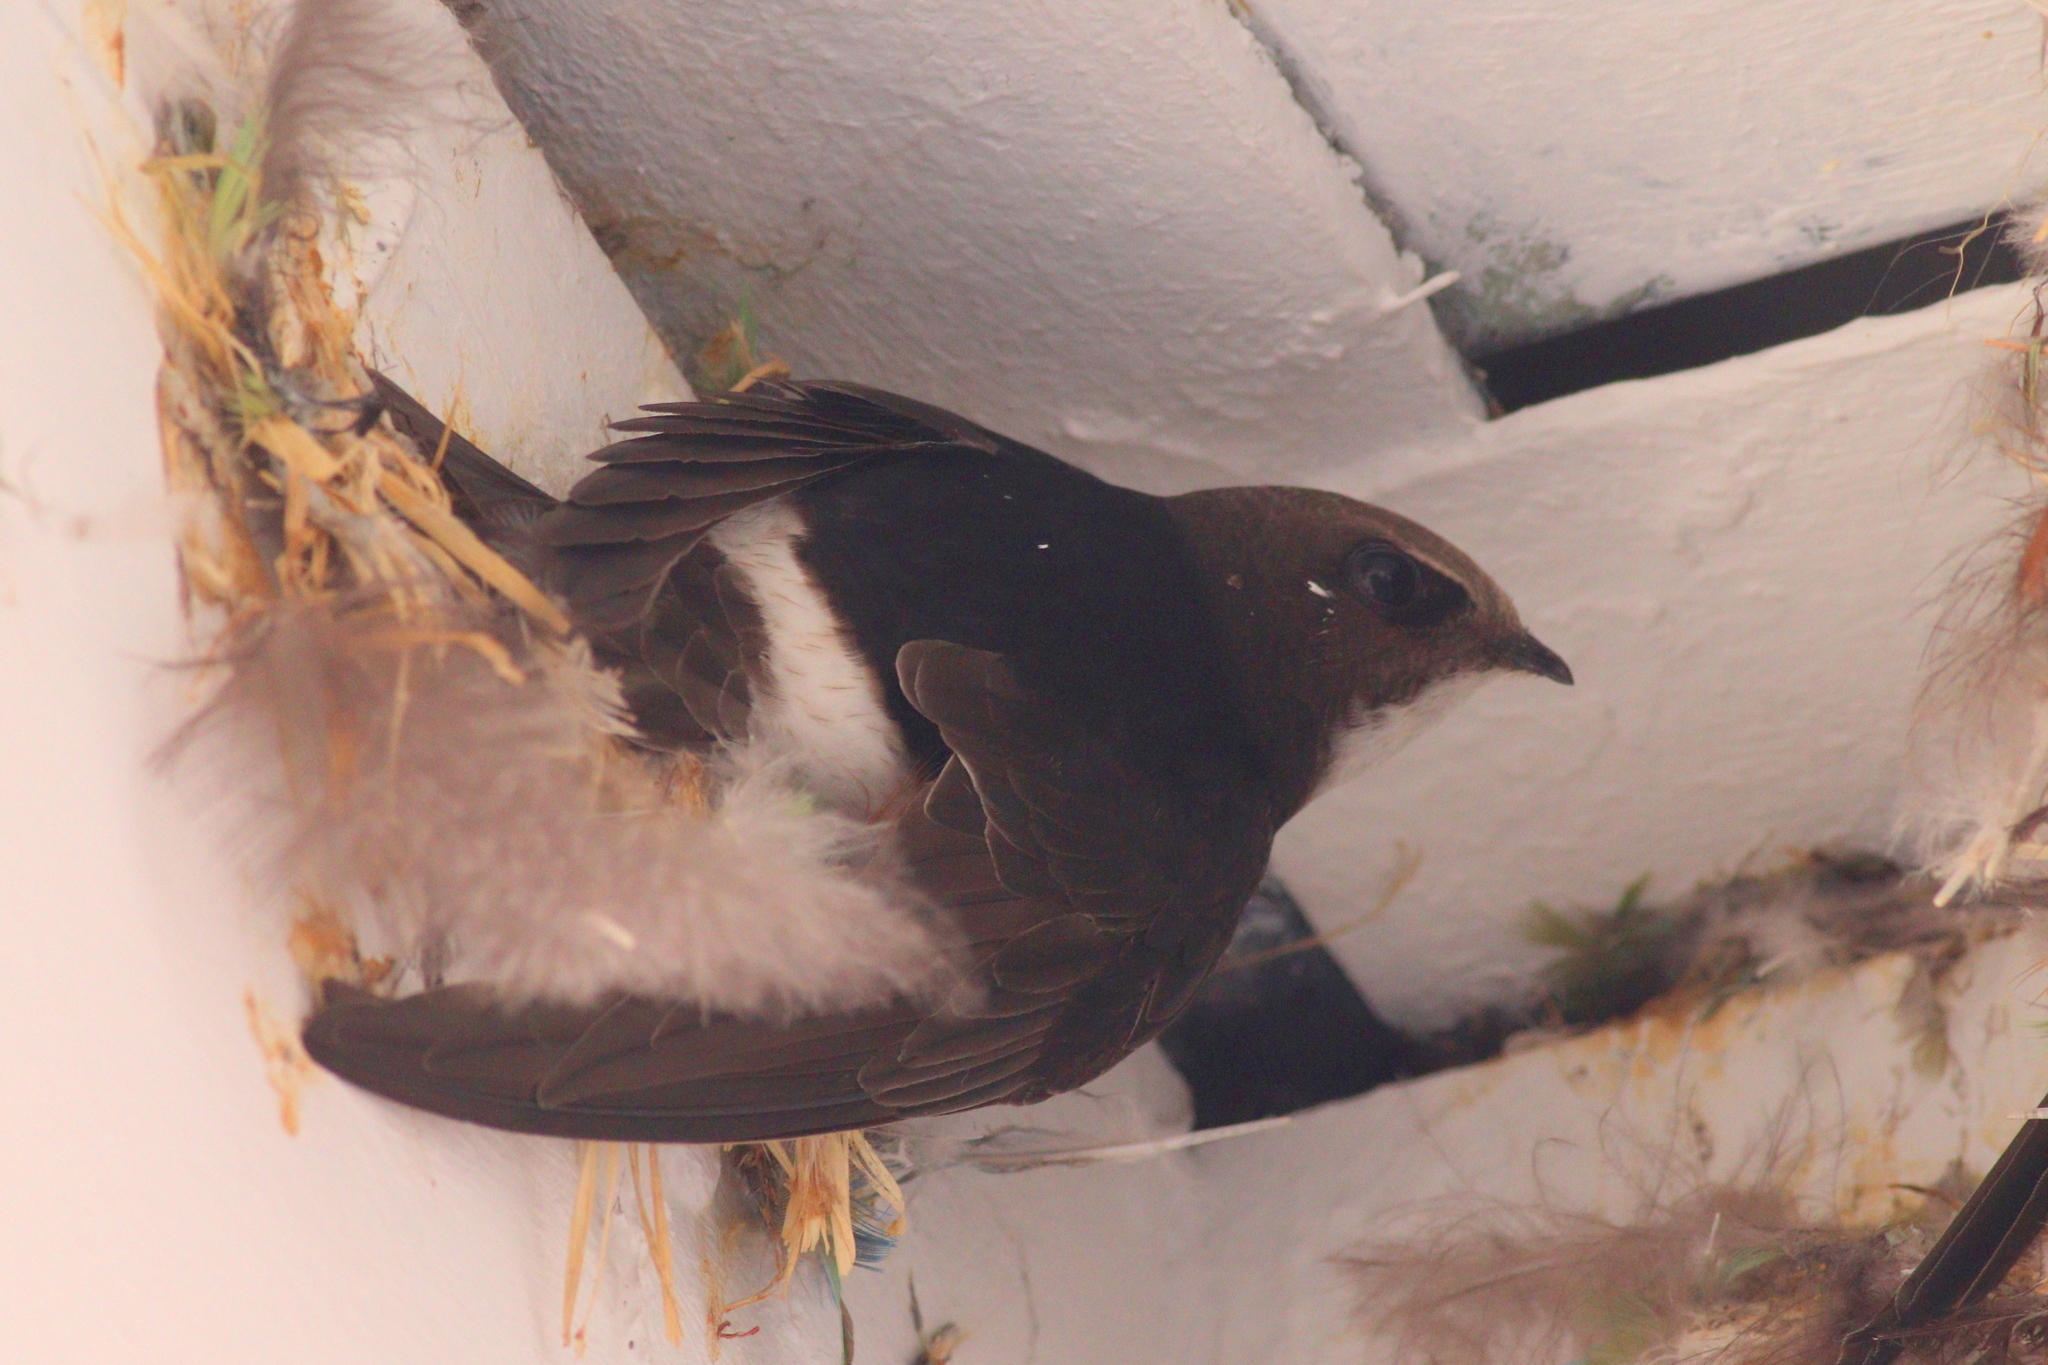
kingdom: Animalia
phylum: Chordata
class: Aves
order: Apodiformes
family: Apodidae
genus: Apus
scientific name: Apus affinis
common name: Little swift
